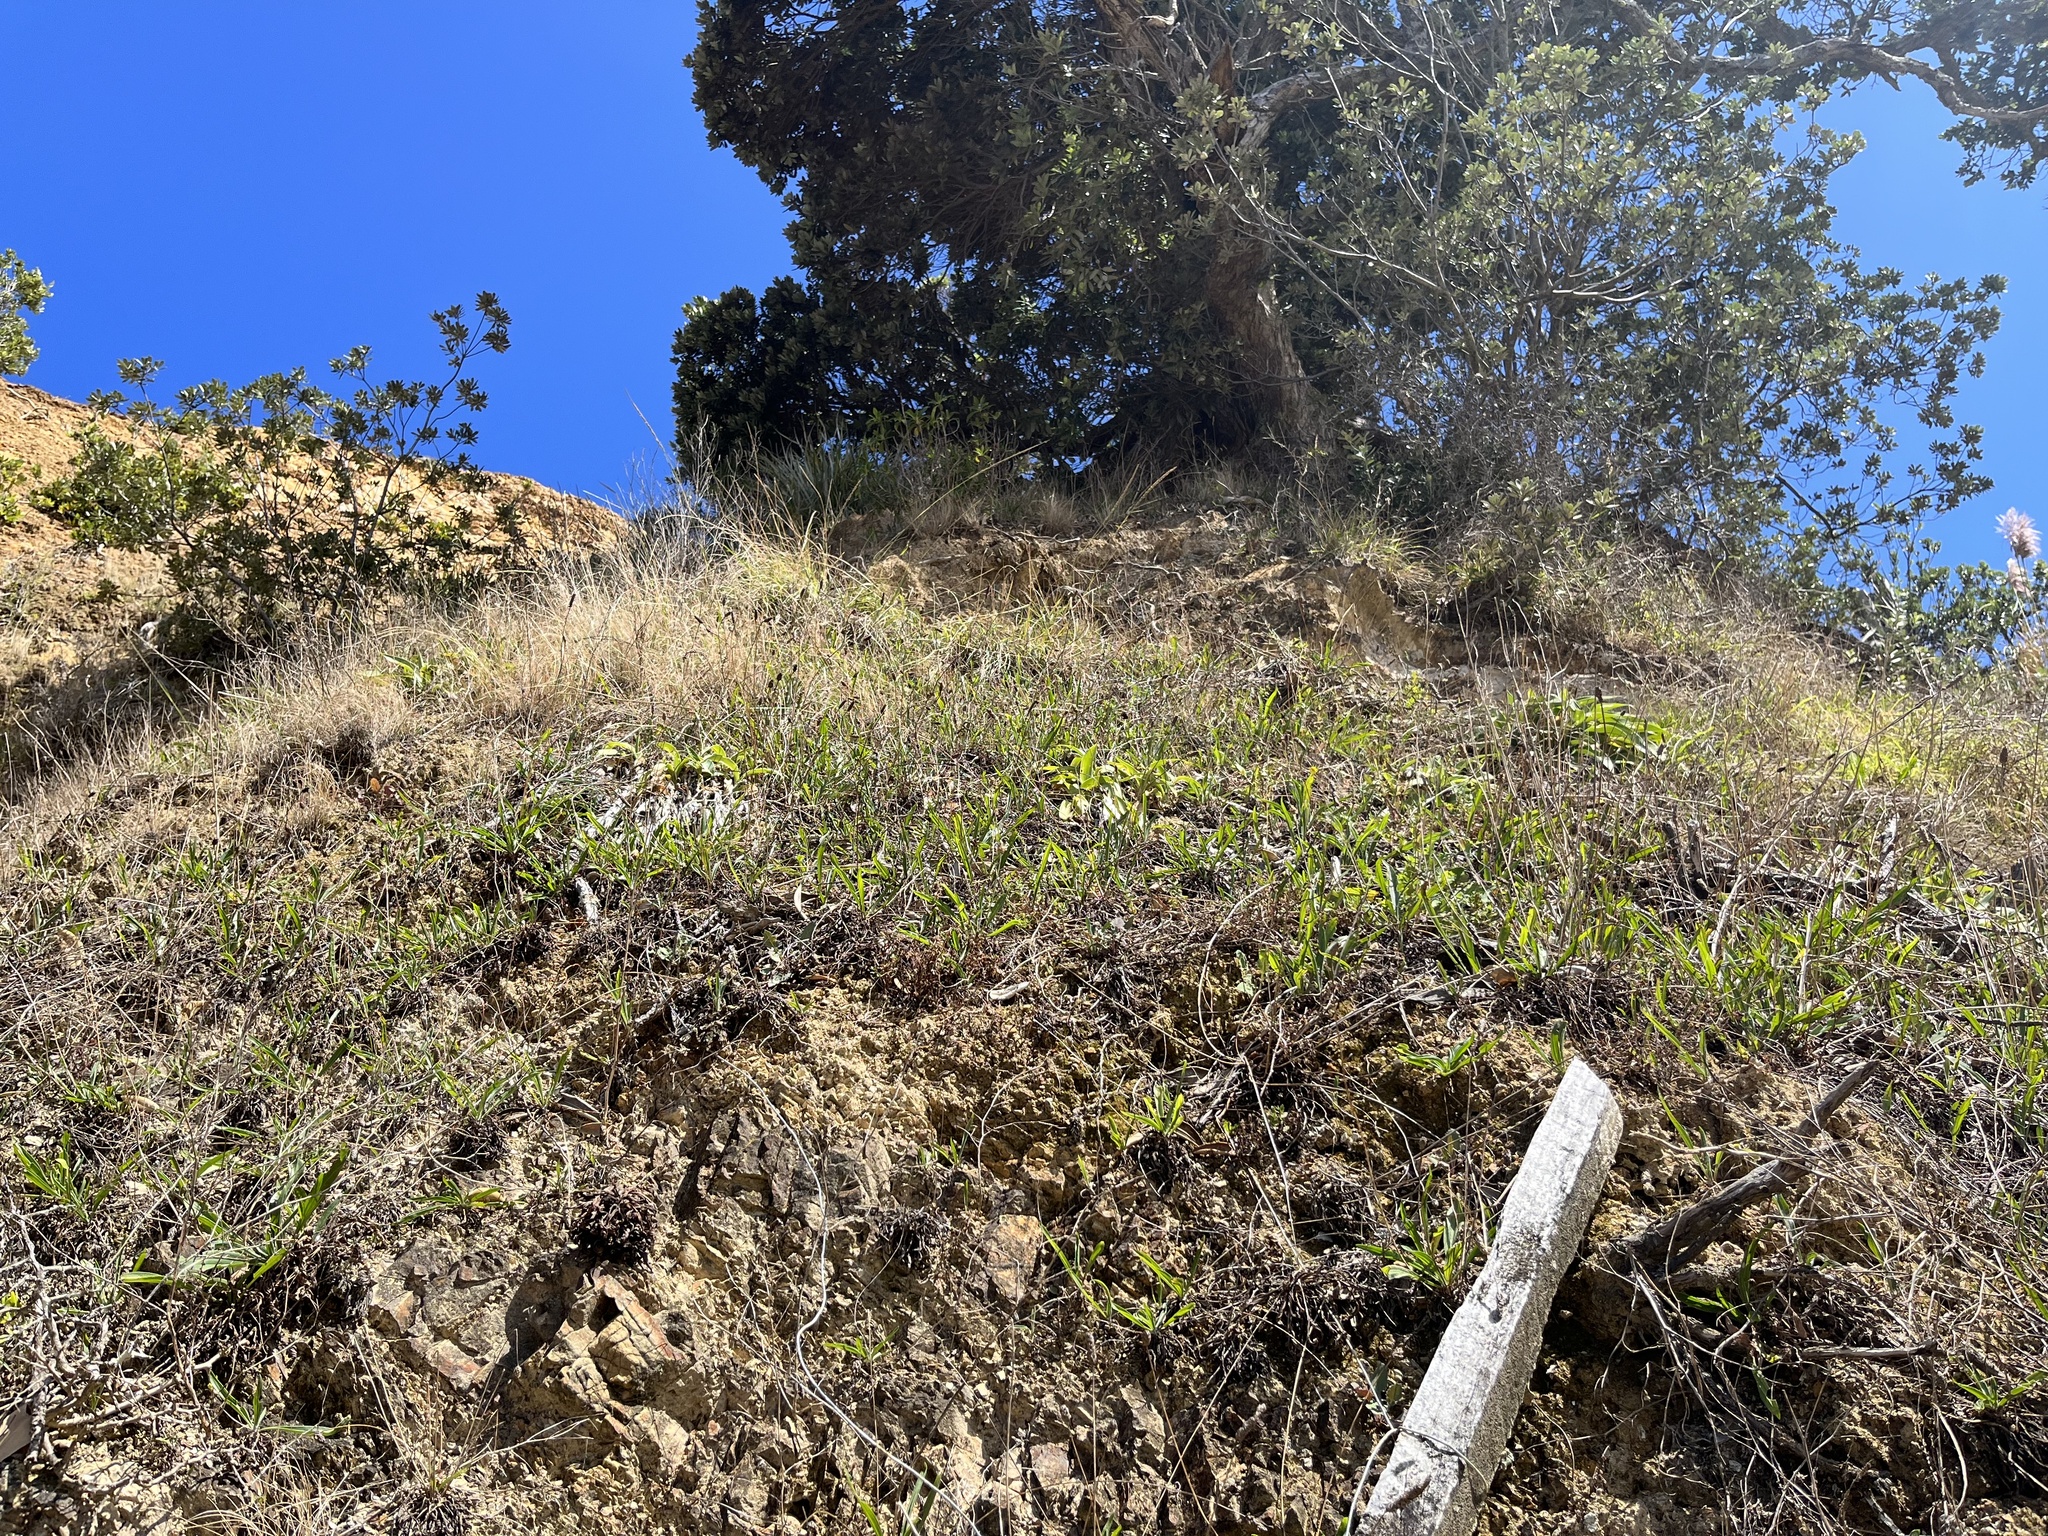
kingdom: Plantae
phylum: Tracheophyta
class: Liliopsida
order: Asparagales
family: Asparagaceae
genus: Arthropodium
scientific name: Arthropodium cirratum
